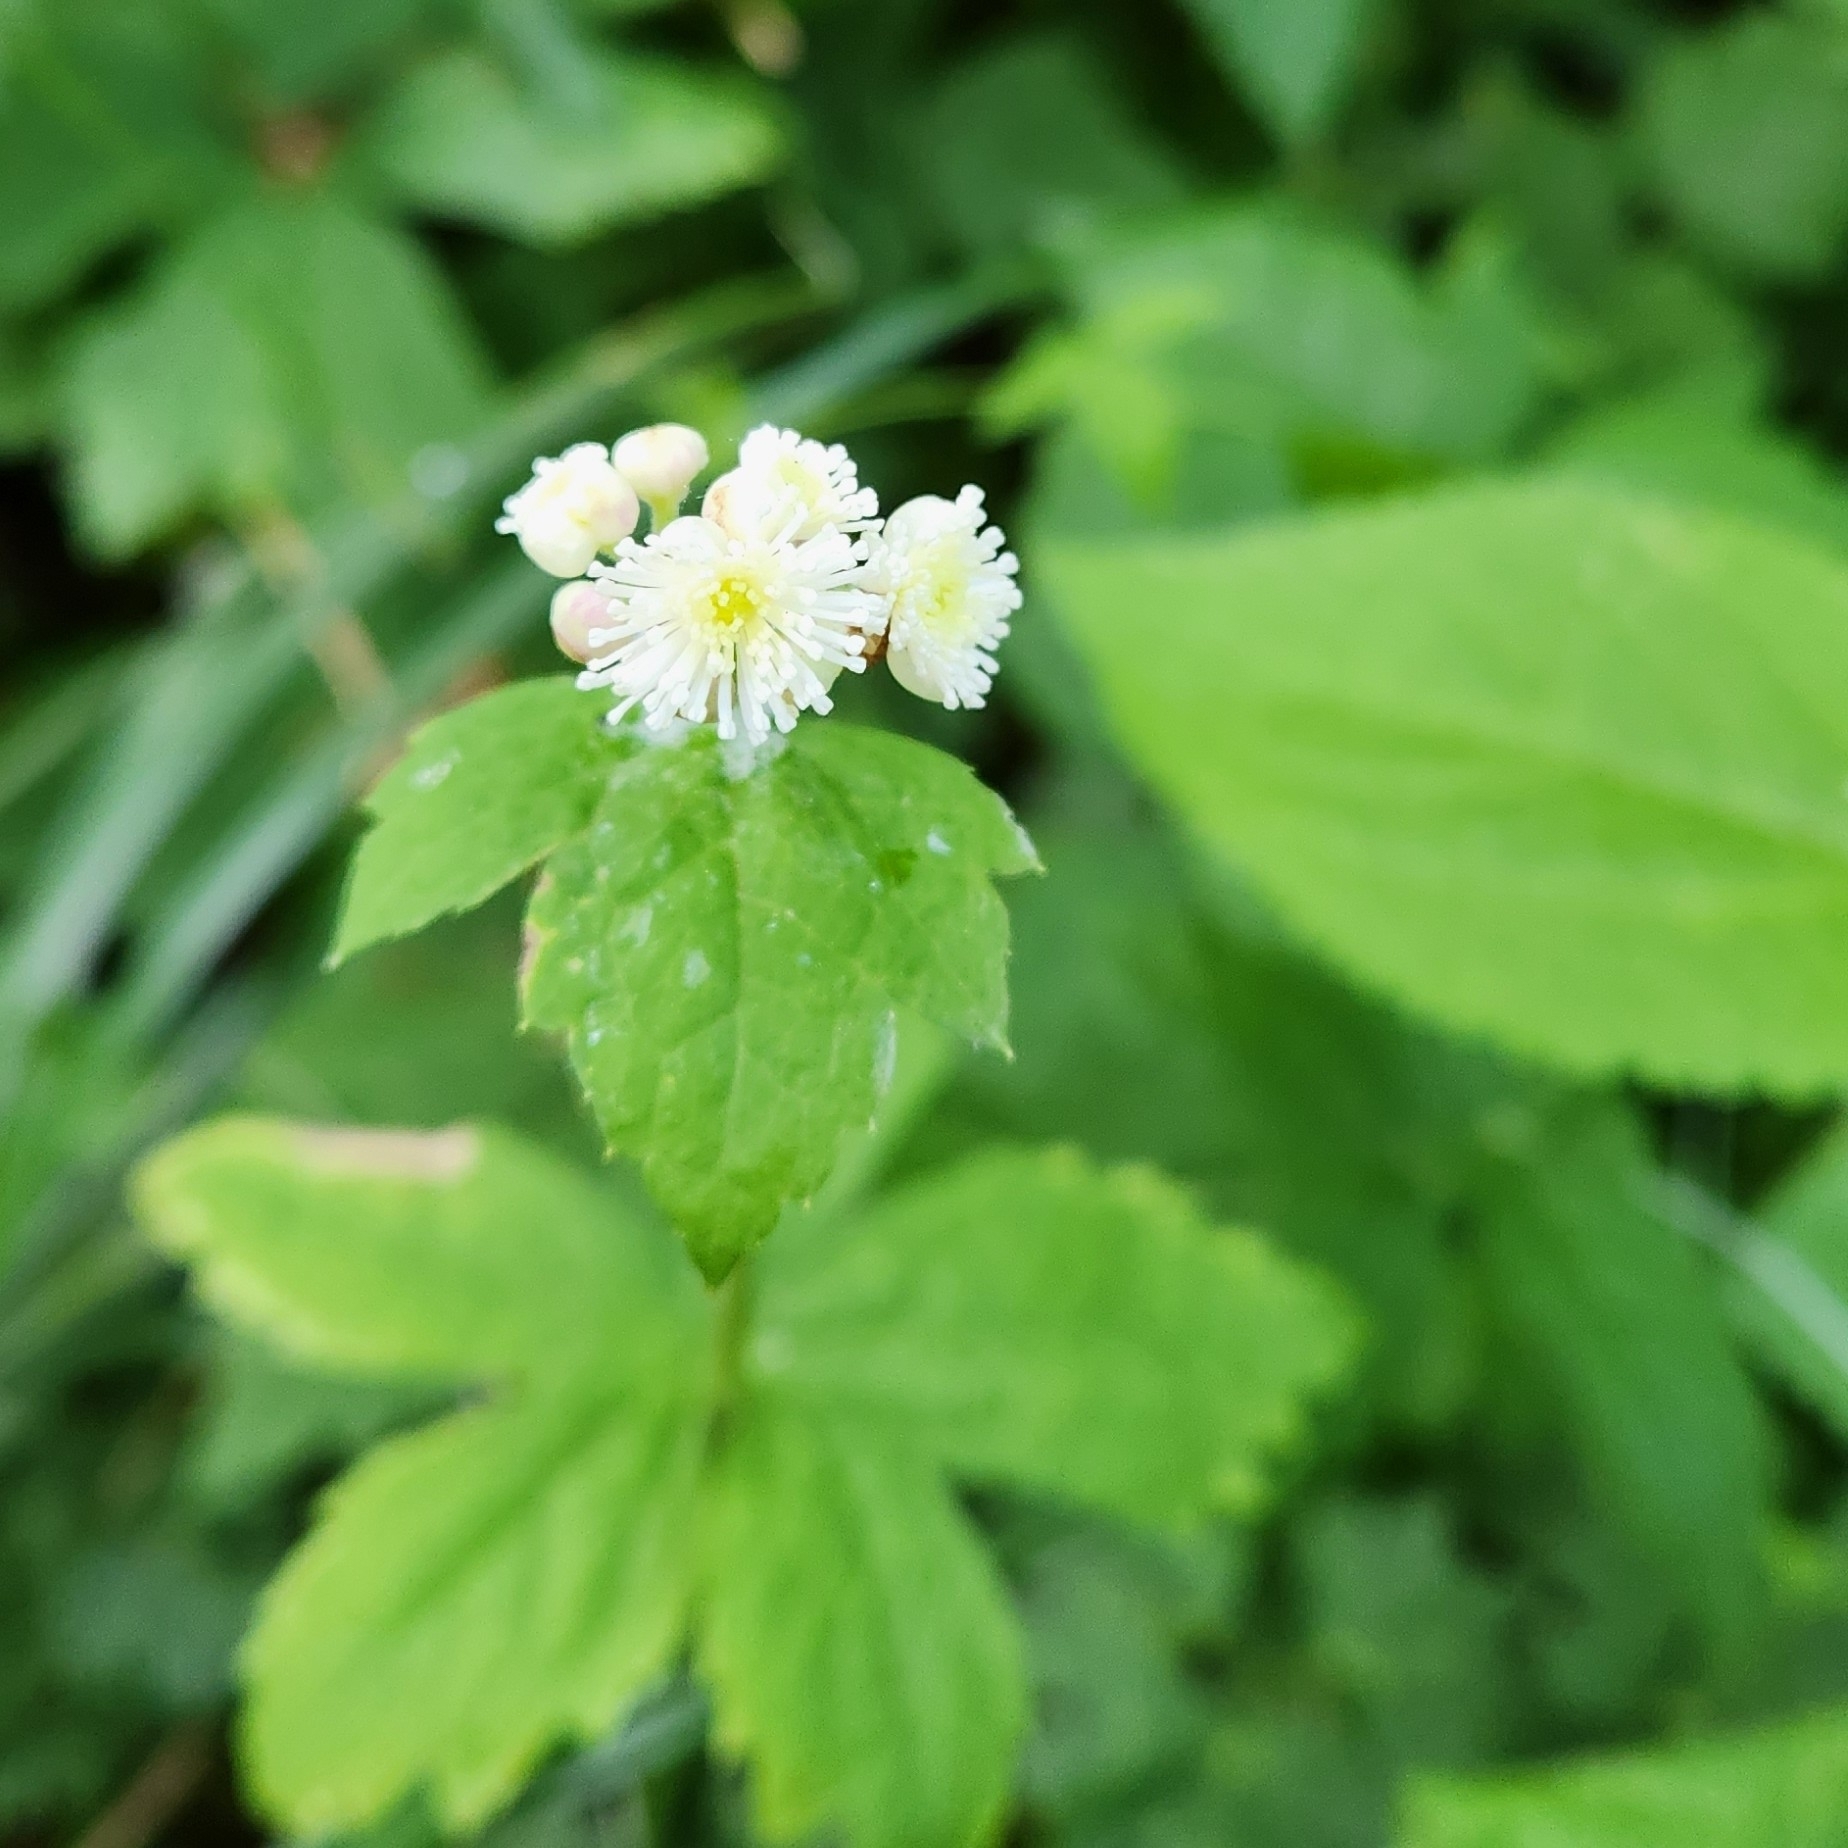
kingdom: Plantae
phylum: Tracheophyta
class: Magnoliopsida
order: Ranunculales
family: Ranunculaceae
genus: Trautvetteria
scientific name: Trautvetteria carolinensis
